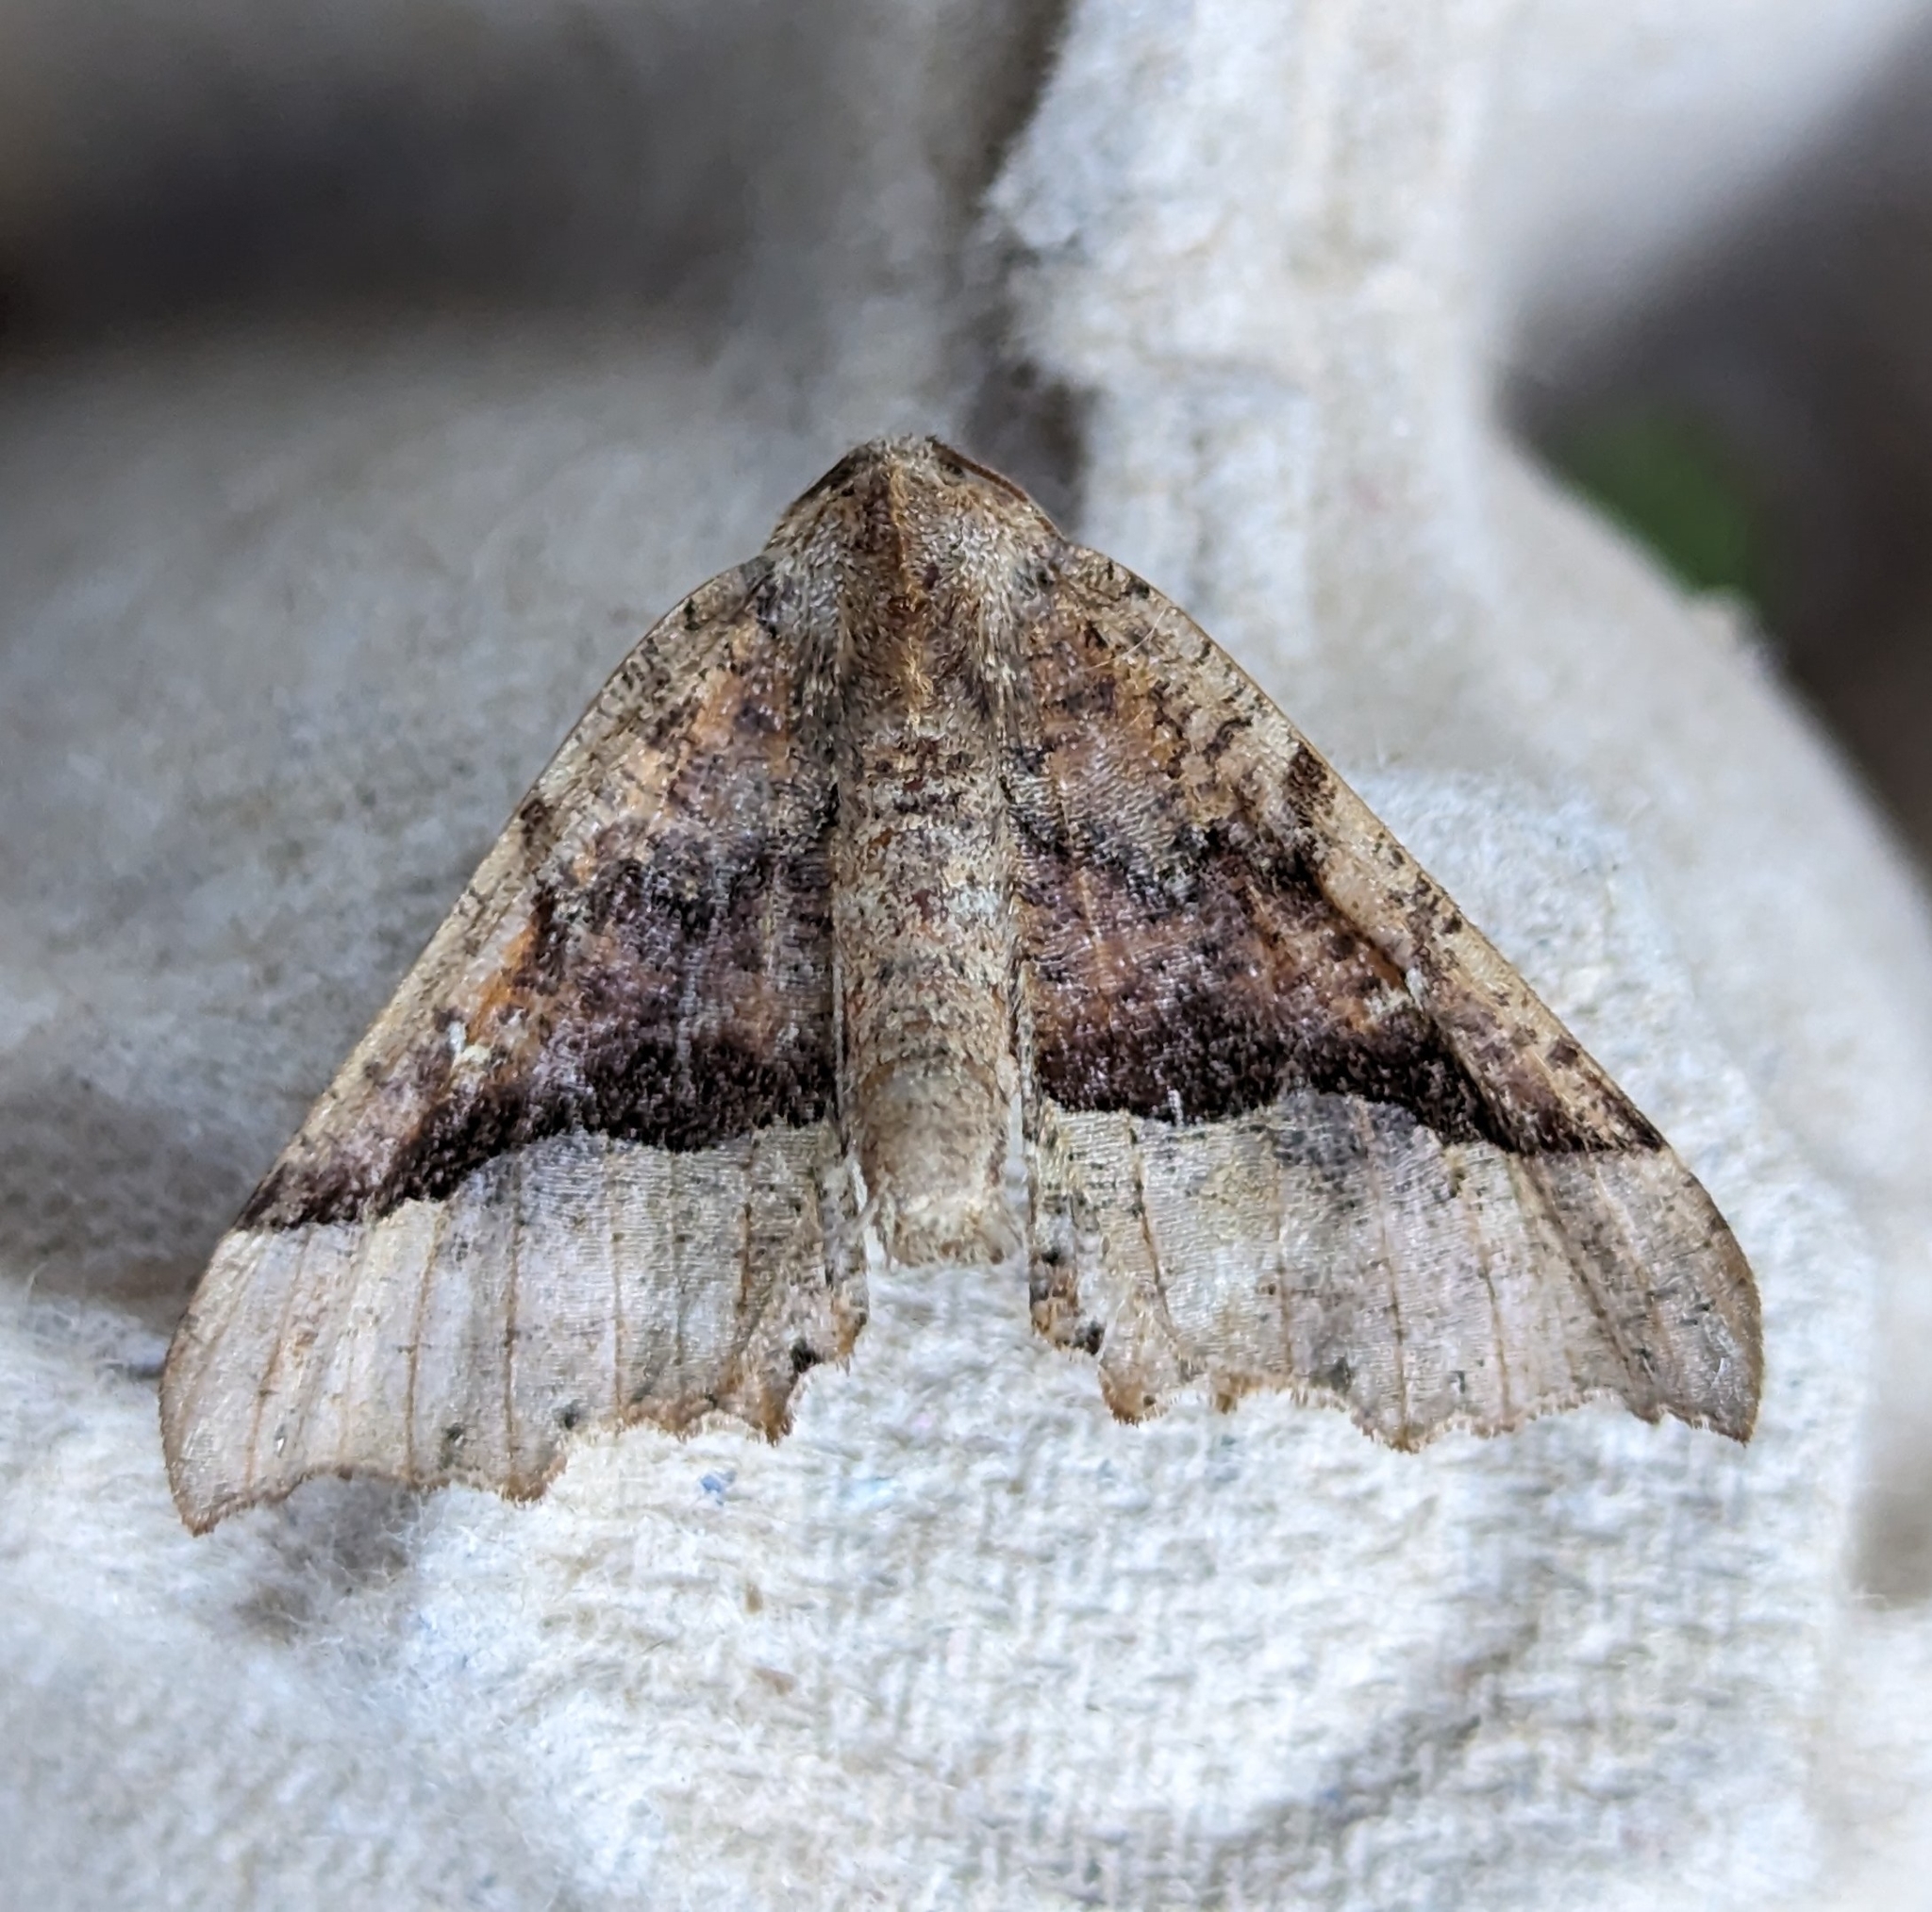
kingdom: Animalia
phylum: Arthropoda
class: Insecta
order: Lepidoptera
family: Geometridae
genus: Pero
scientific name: Pero morrisonaria
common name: Morrison's pero
